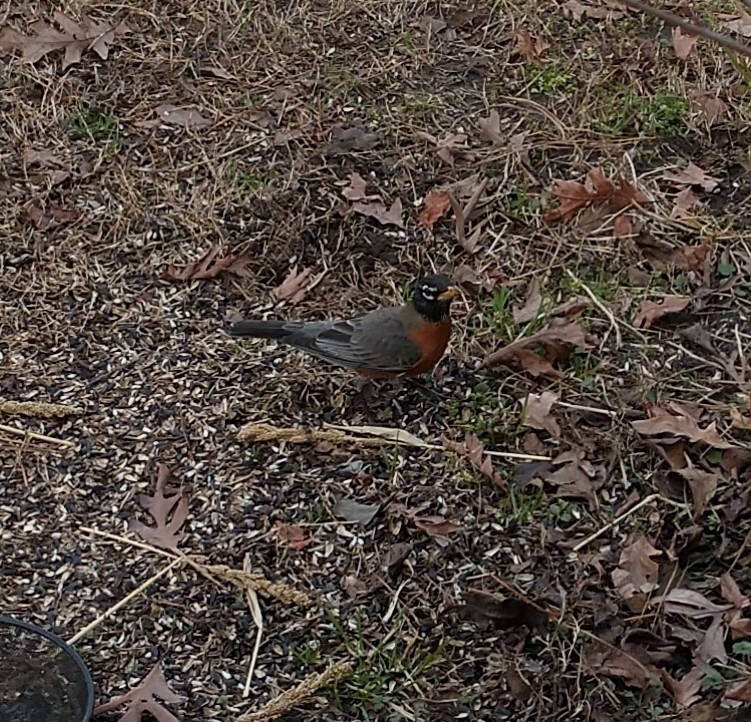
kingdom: Animalia
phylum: Chordata
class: Aves
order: Passeriformes
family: Turdidae
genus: Turdus
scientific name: Turdus migratorius
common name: American robin
